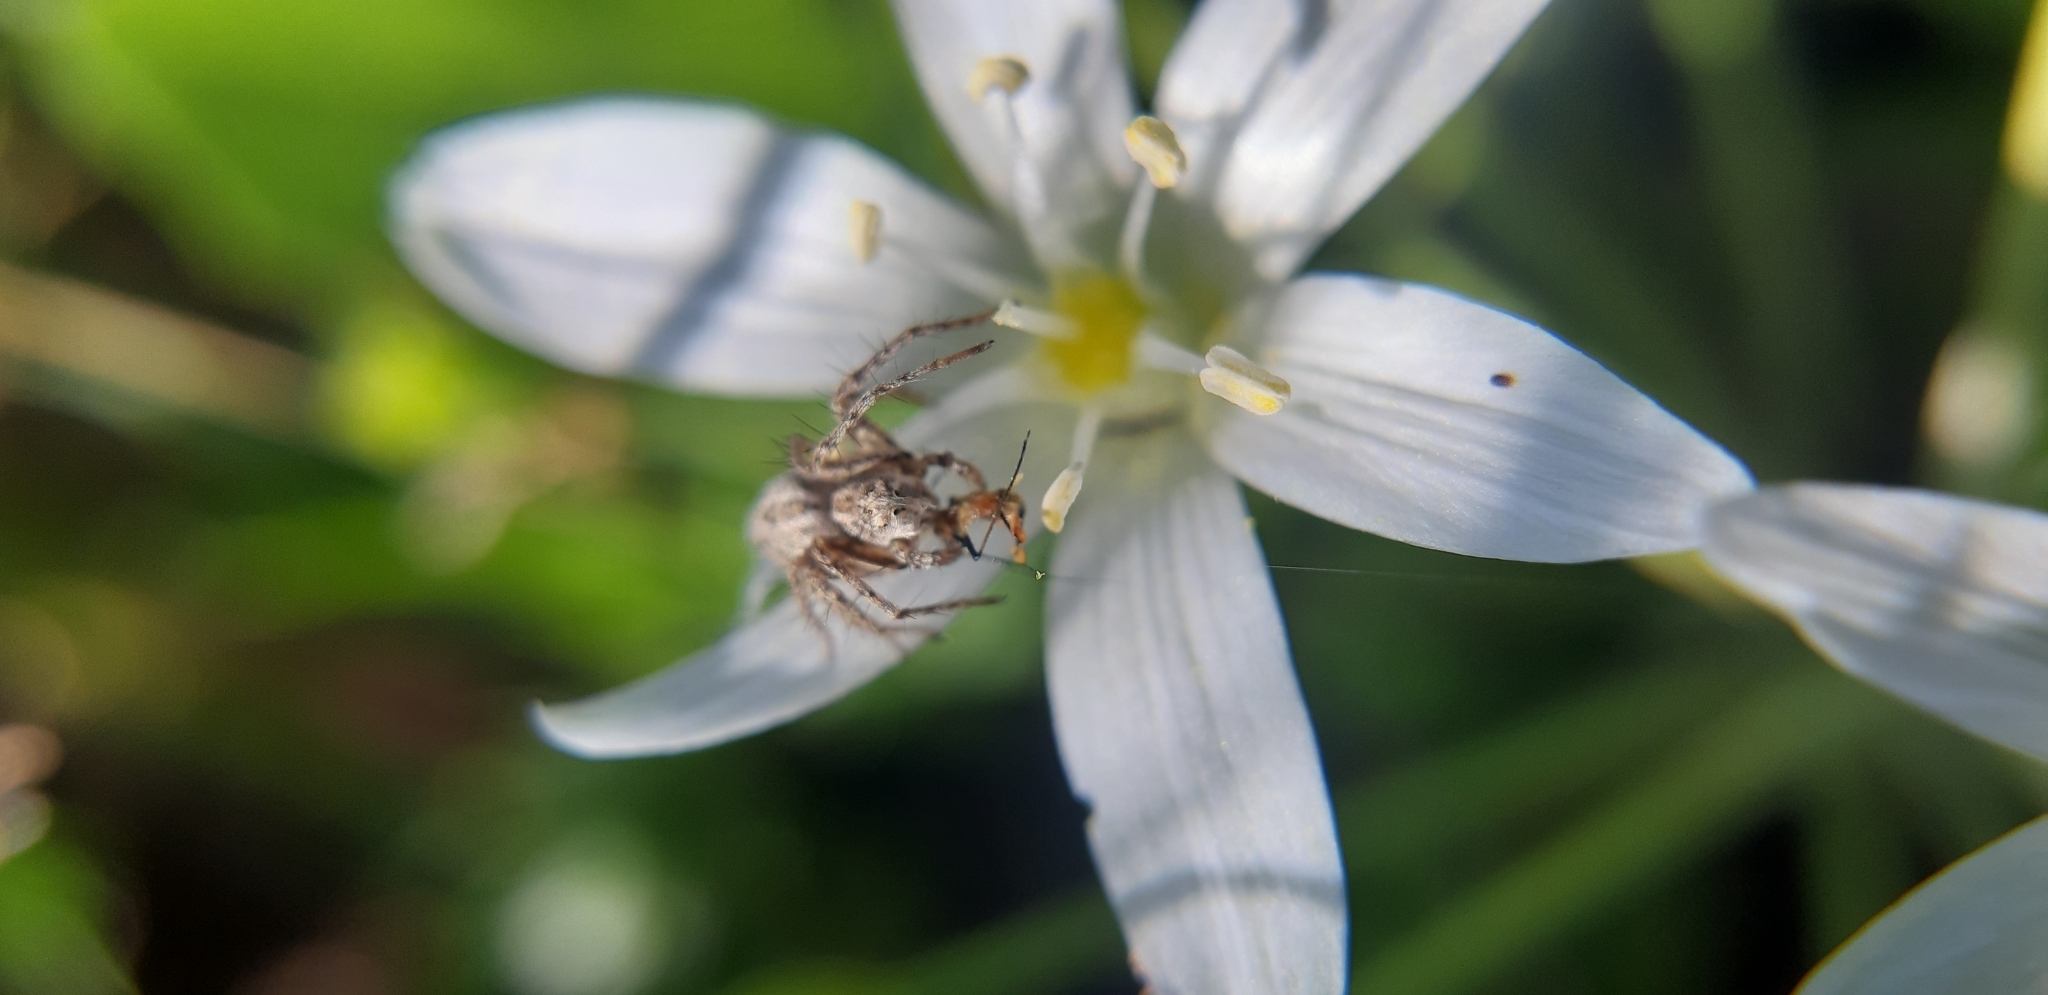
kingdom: Animalia
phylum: Arthropoda
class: Arachnida
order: Araneae
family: Oxyopidae
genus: Oxyopes
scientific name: Oxyopes heterophthalmus
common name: Lynx spider
